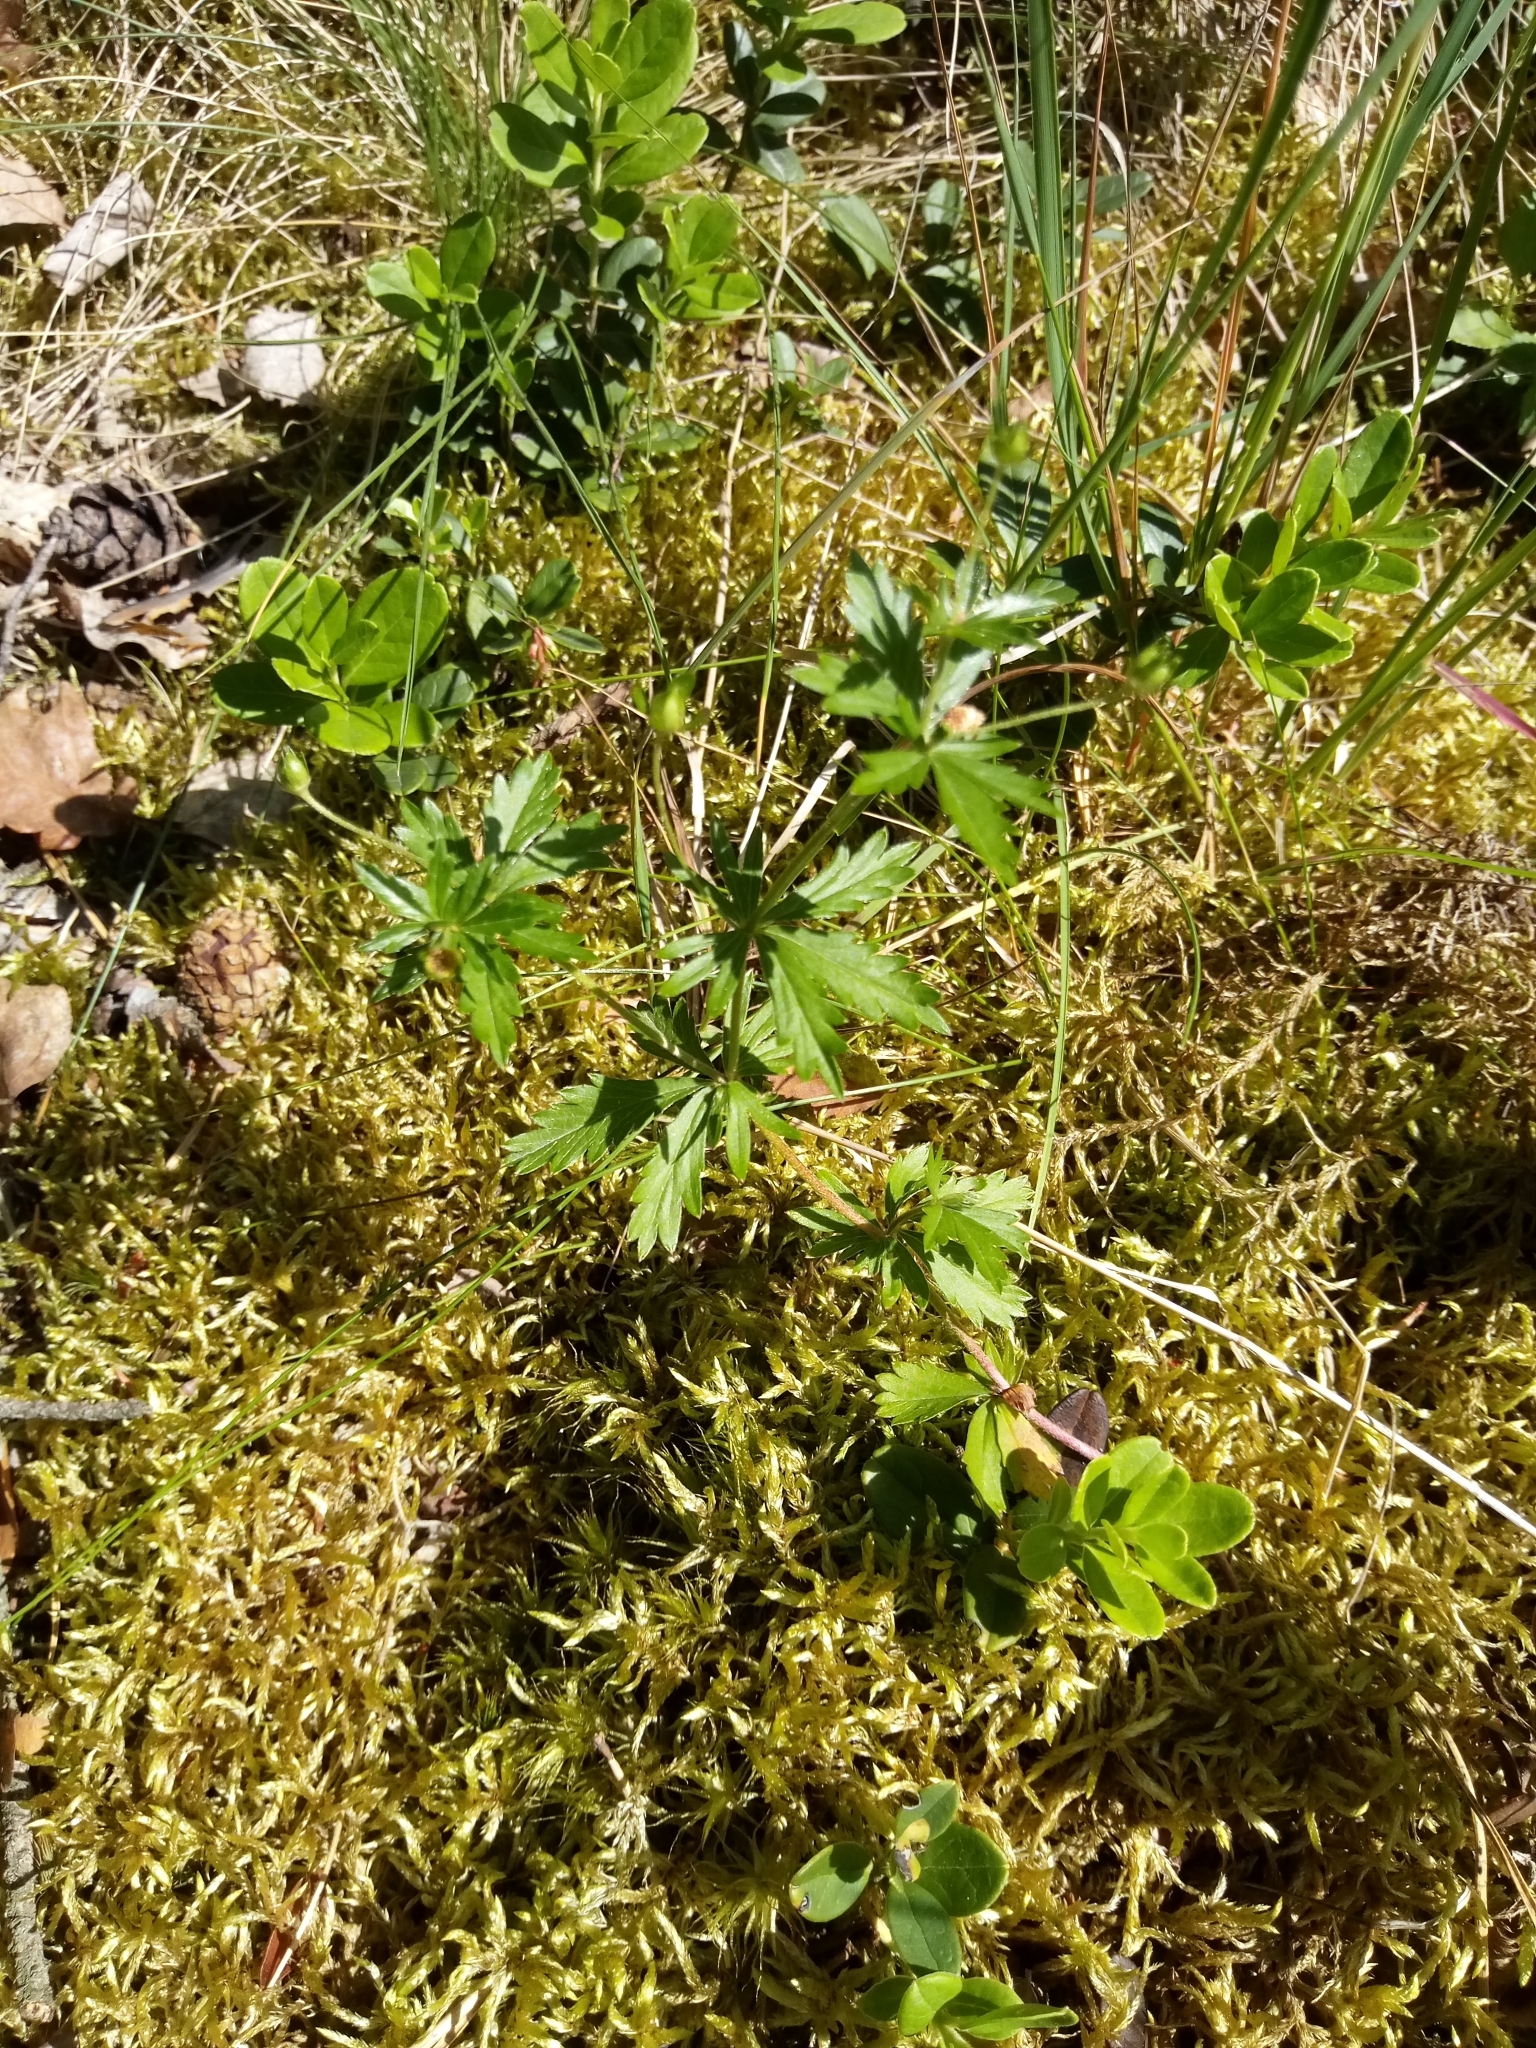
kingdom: Plantae
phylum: Tracheophyta
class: Magnoliopsida
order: Rosales
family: Rosaceae
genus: Potentilla
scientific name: Potentilla erecta
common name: Tormentil
